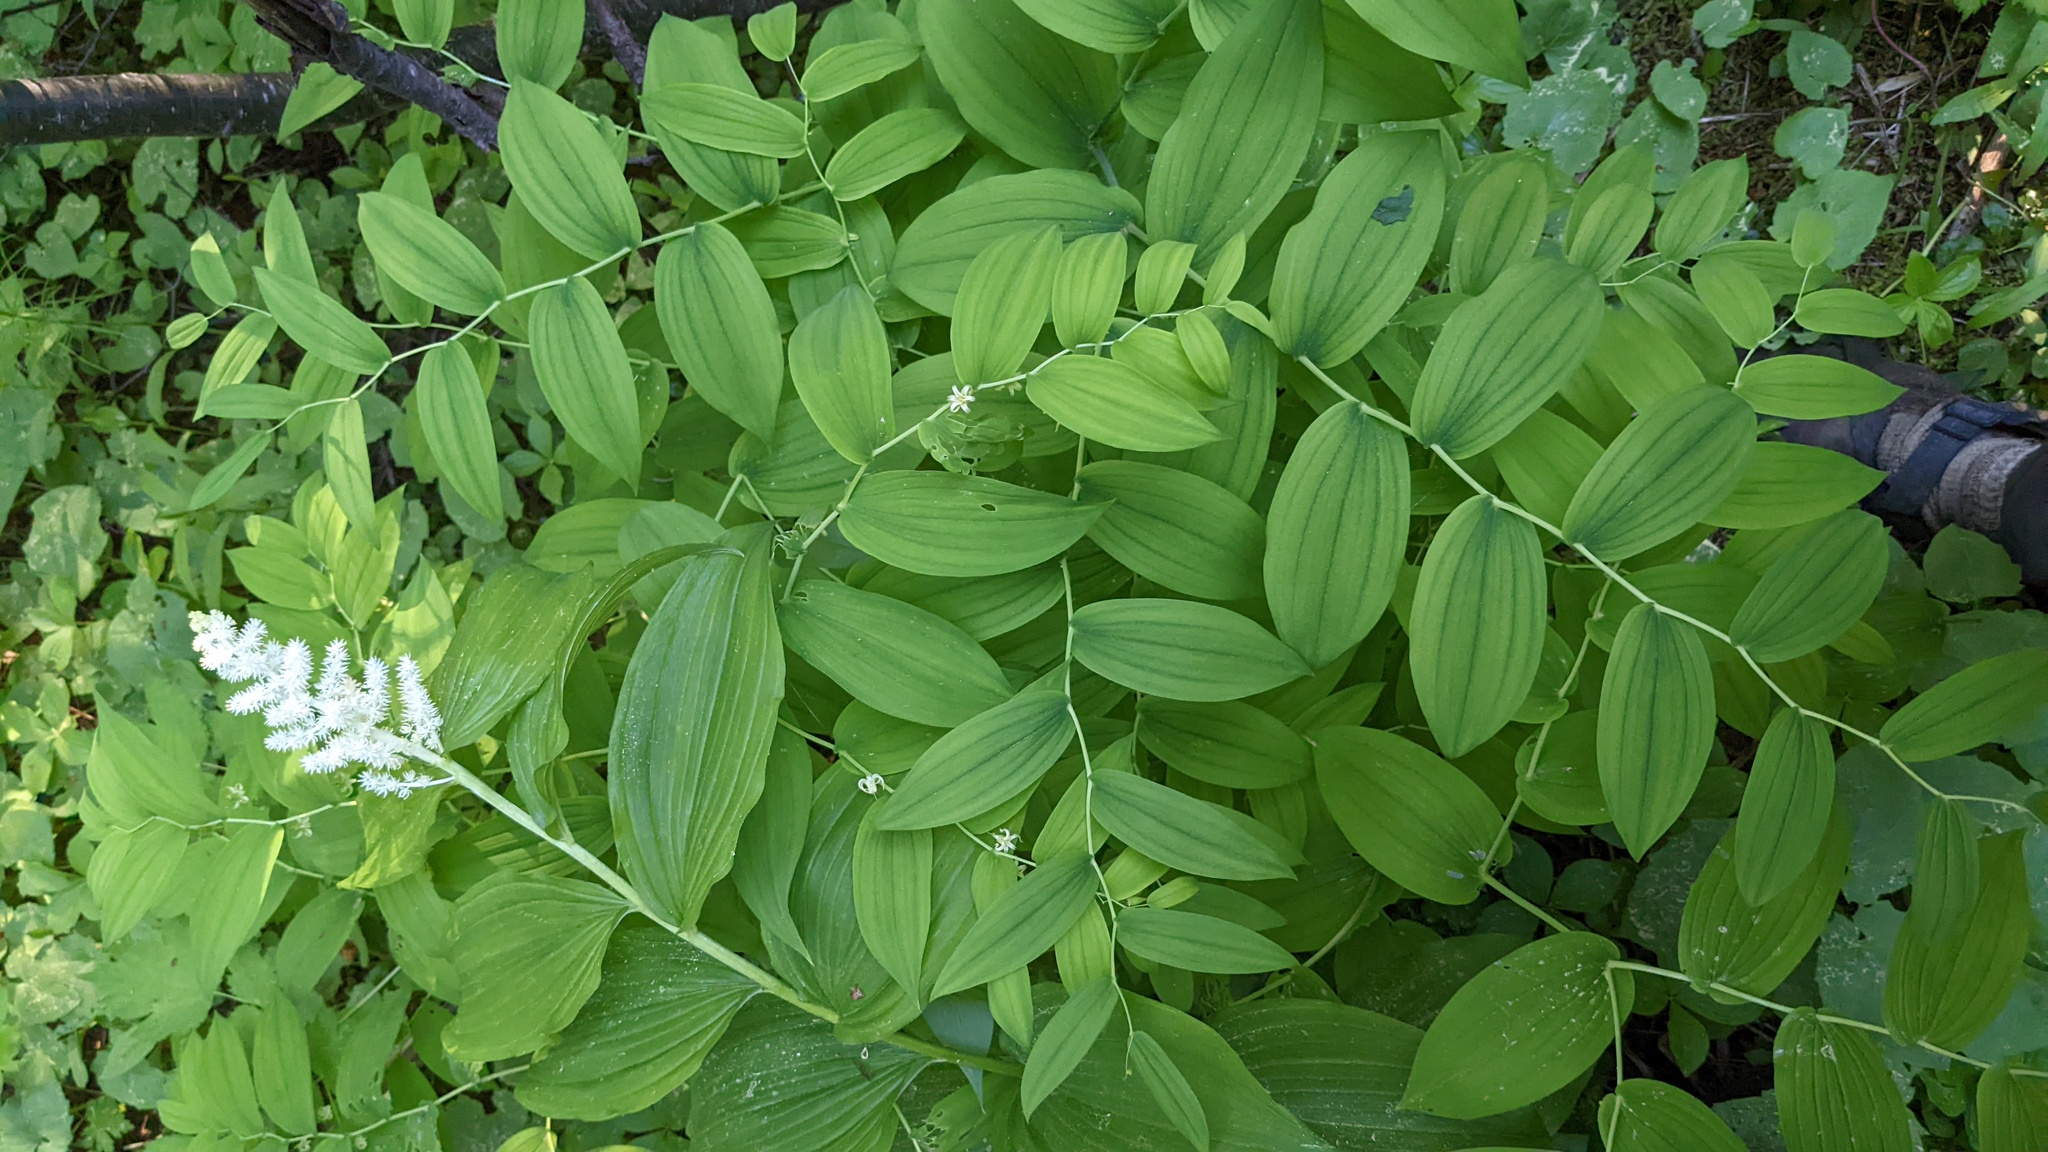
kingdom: Plantae
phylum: Tracheophyta
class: Liliopsida
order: Liliales
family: Liliaceae
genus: Streptopus
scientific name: Streptopus amplexifolius
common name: Clasp twisted stalk
